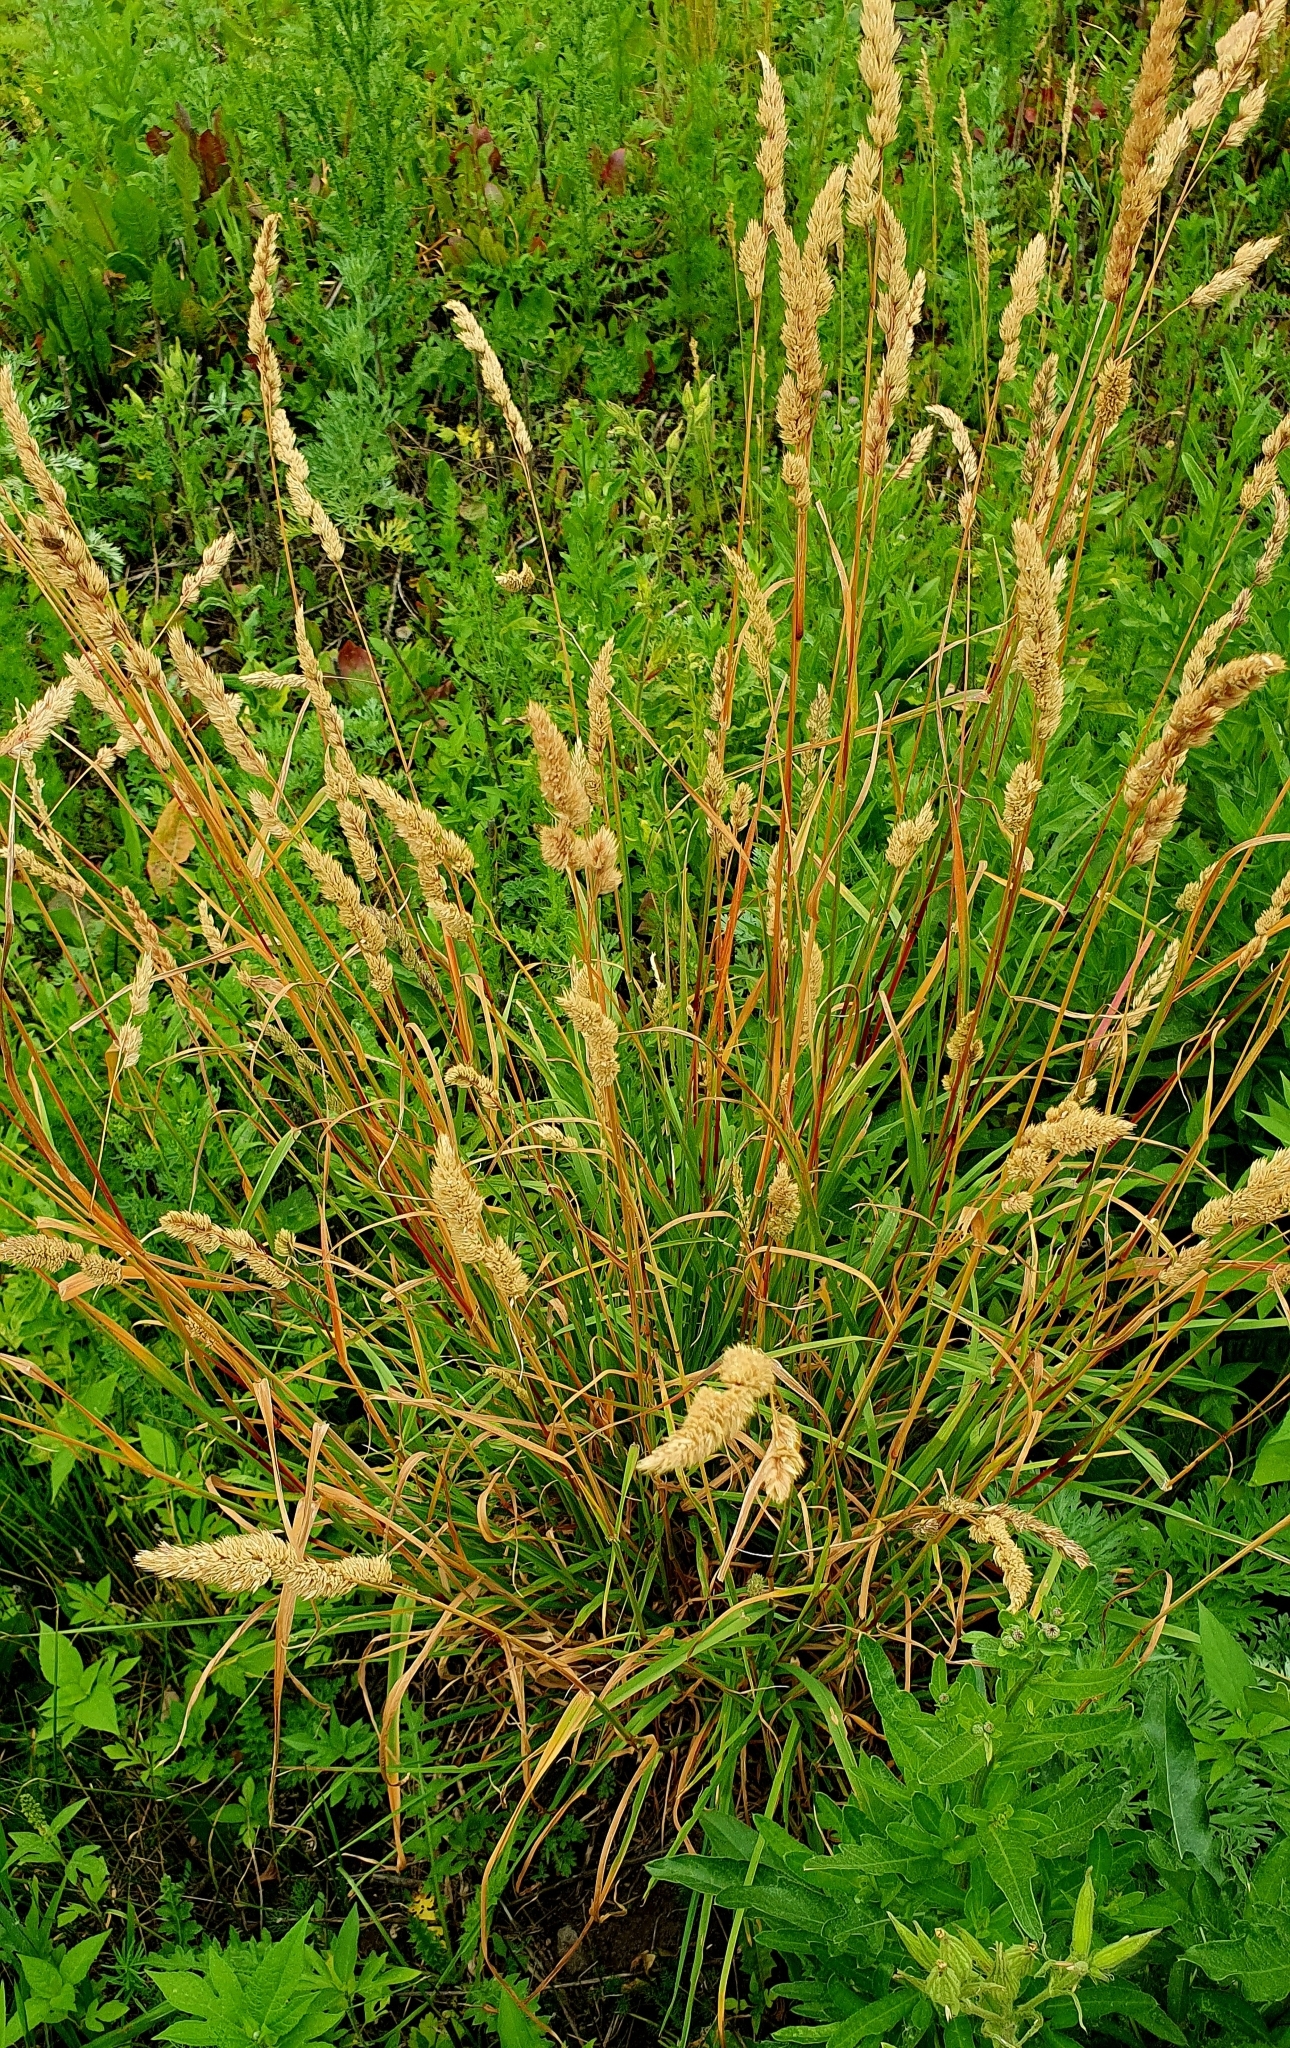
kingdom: Plantae
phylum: Tracheophyta
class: Liliopsida
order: Poales
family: Poaceae
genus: Dactylis
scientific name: Dactylis glomerata
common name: Orchardgrass
